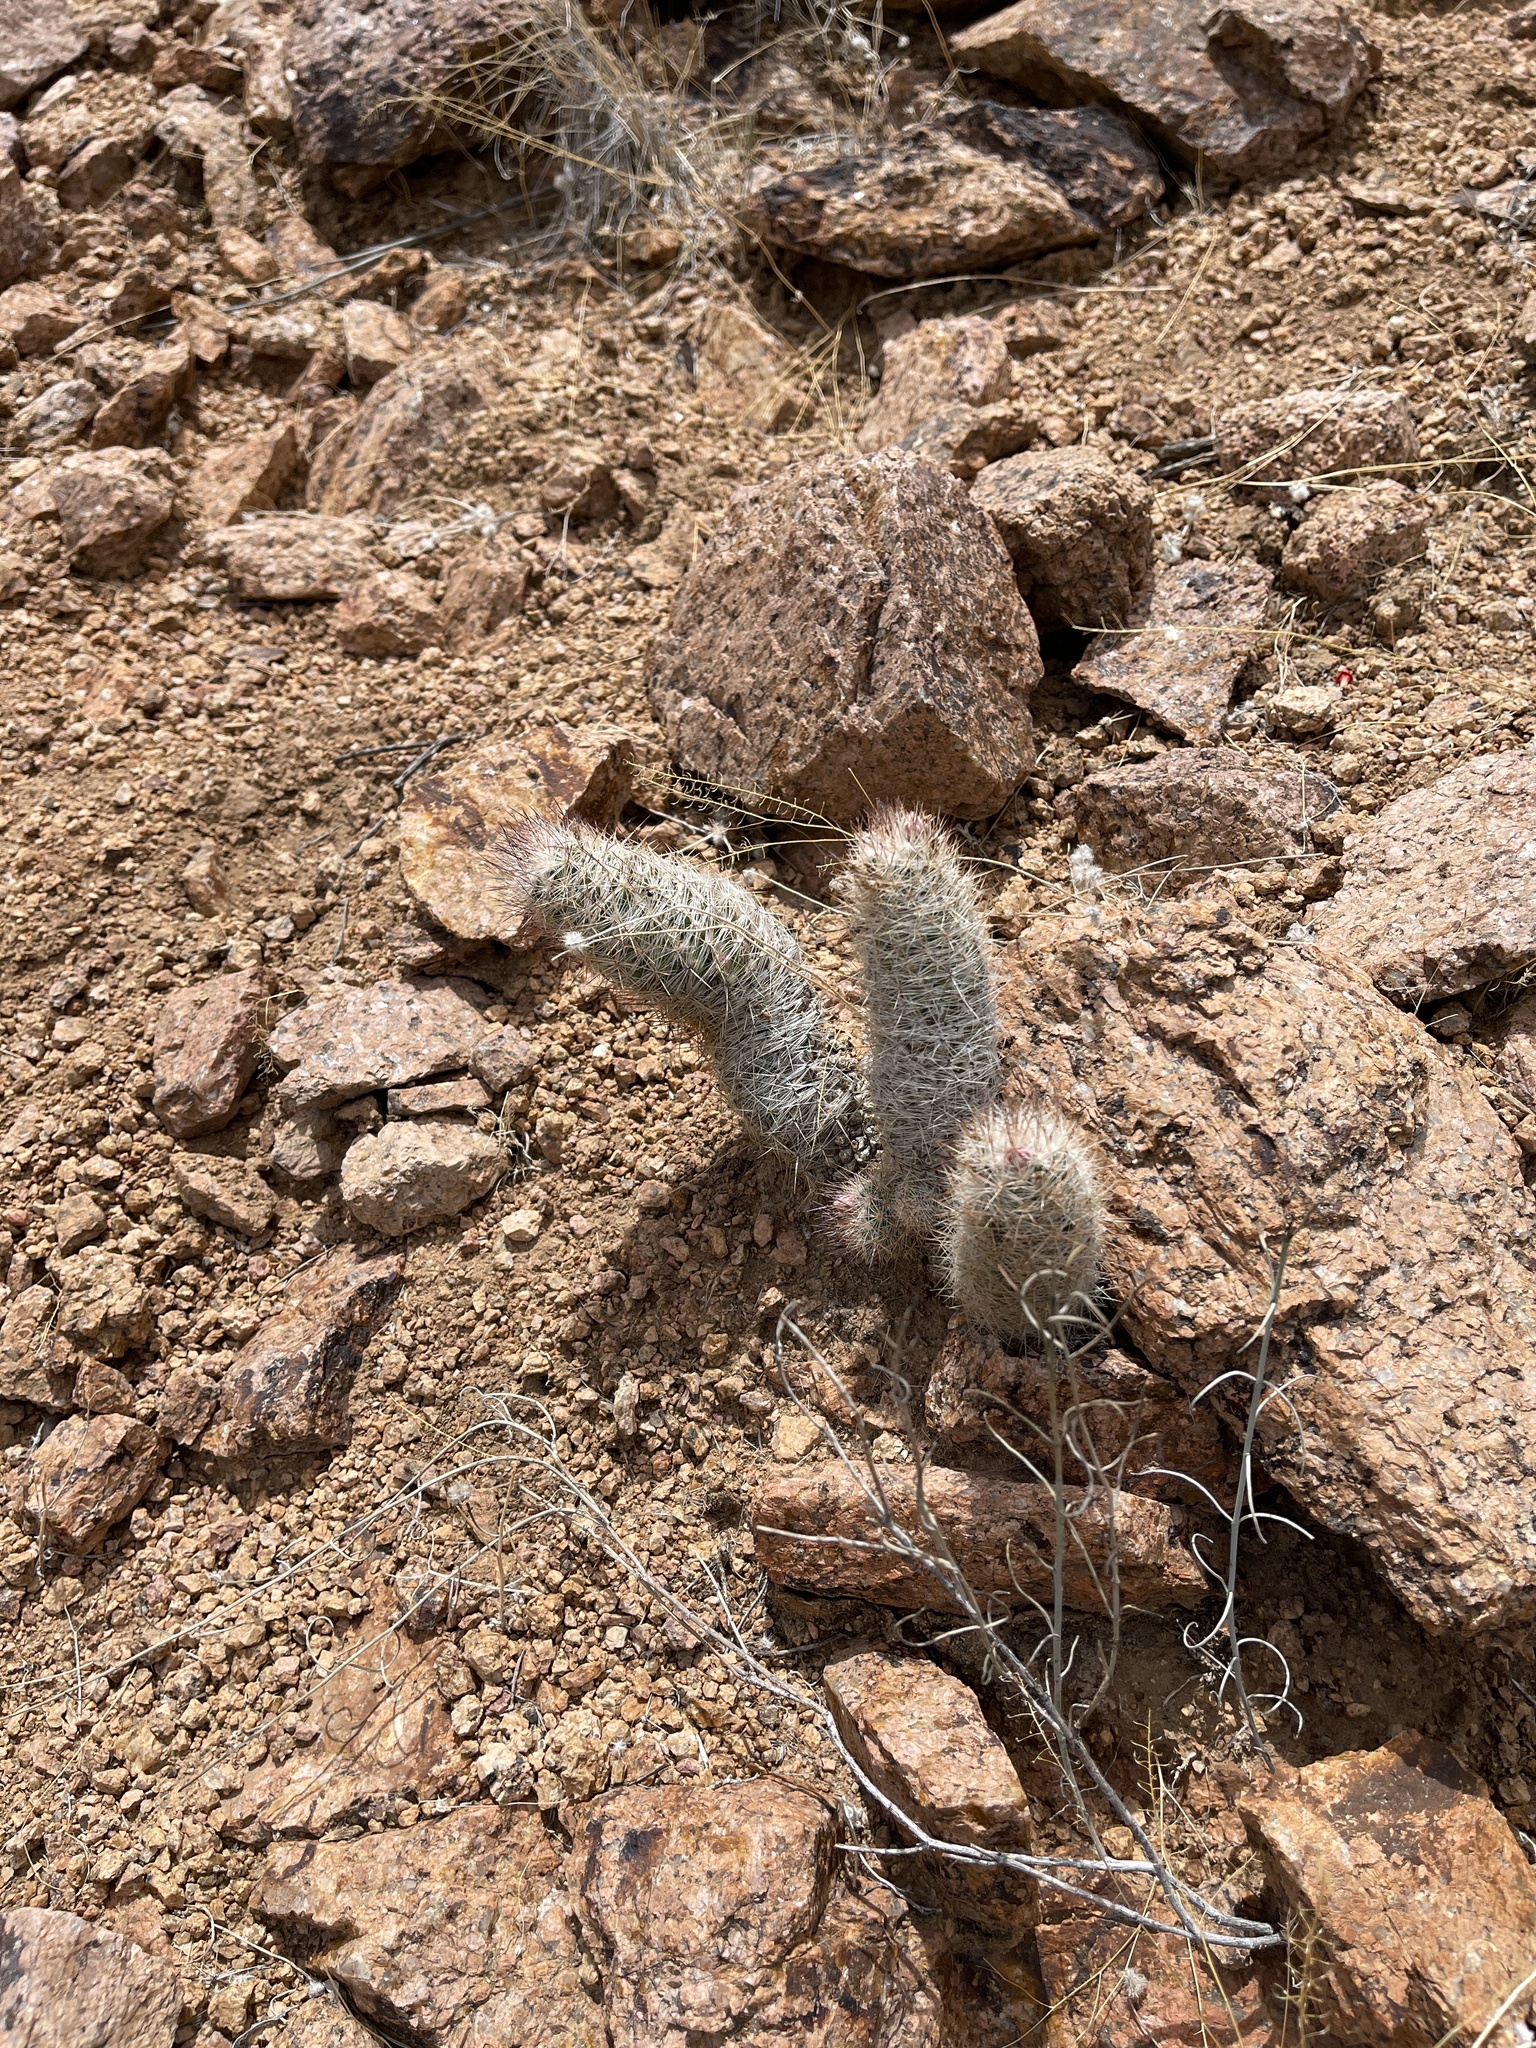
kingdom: Plantae
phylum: Tracheophyta
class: Magnoliopsida
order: Caryophyllales
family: Cactaceae
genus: Pelecyphora
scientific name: Pelecyphora tuberculosa
